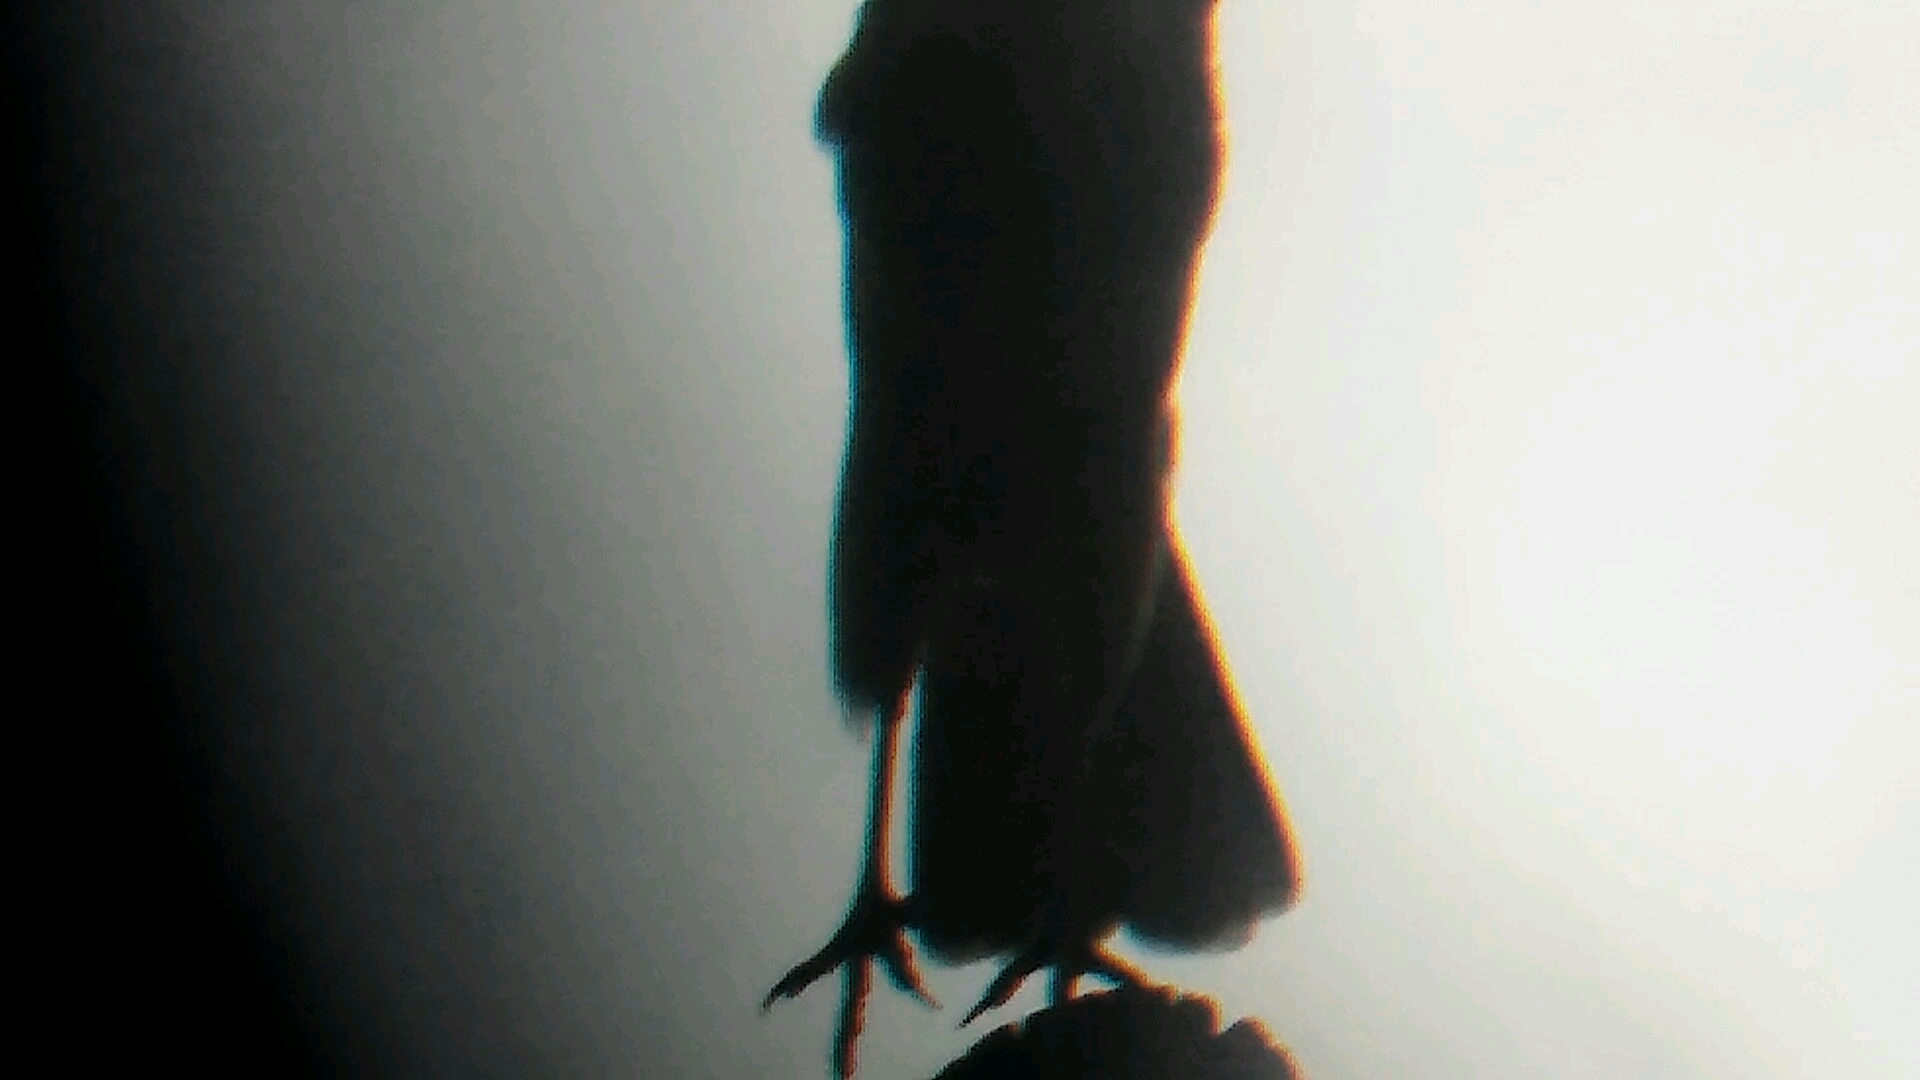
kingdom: Animalia
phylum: Chordata
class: Aves
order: Falconiformes
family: Falconidae
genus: Daptrius
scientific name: Daptrius
